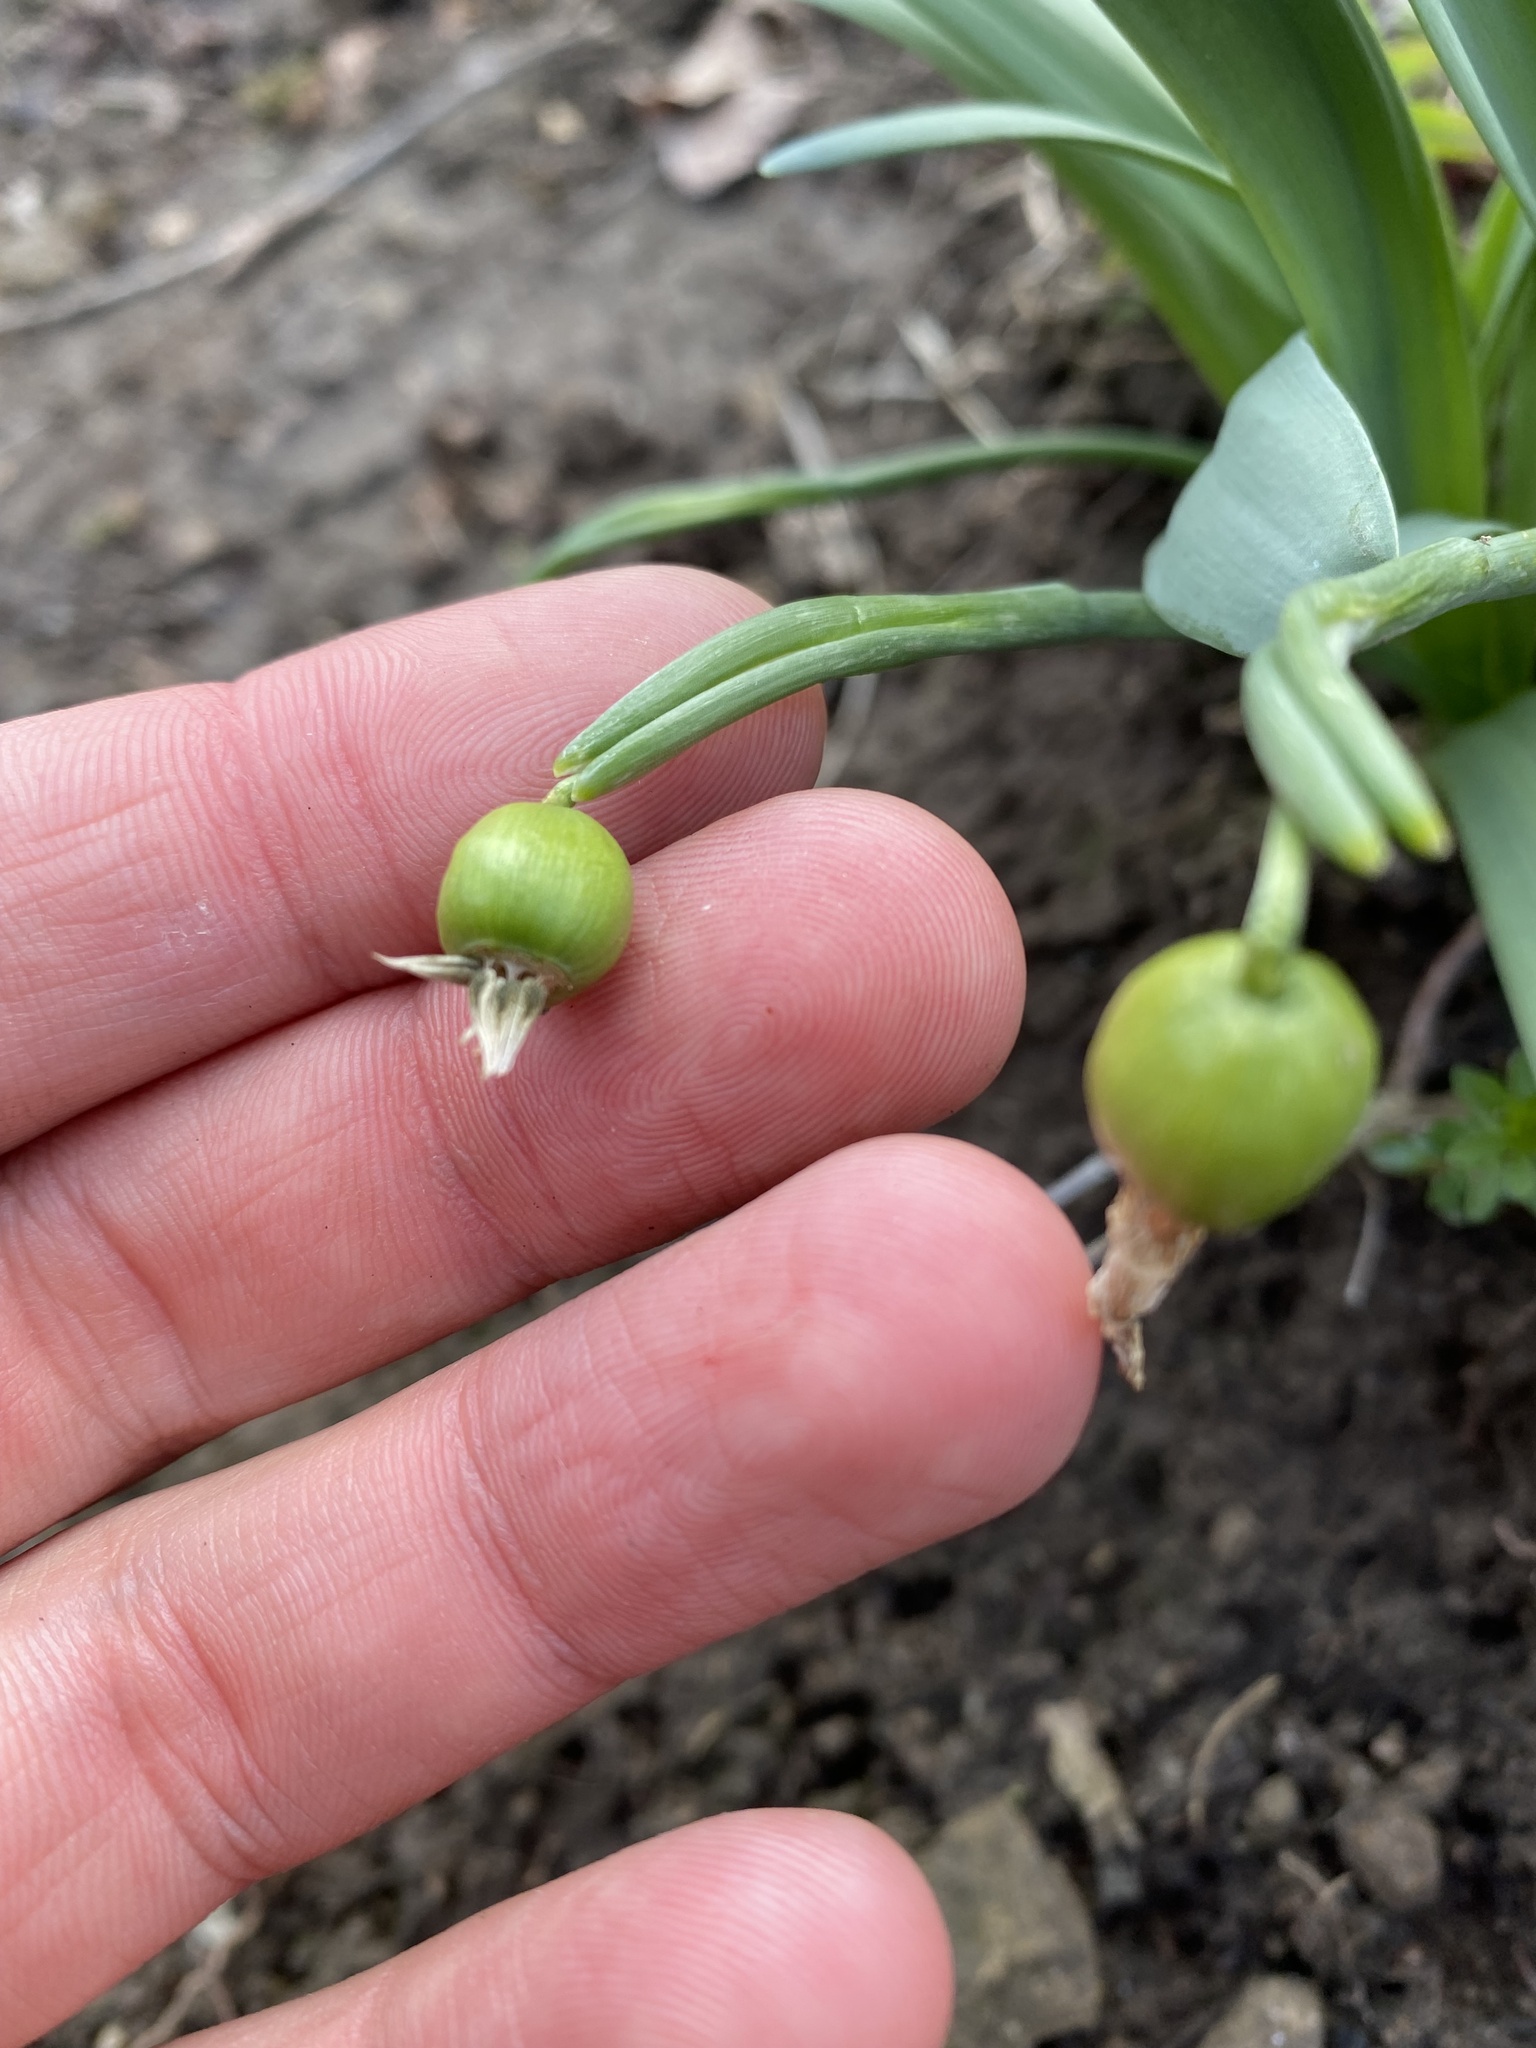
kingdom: Plantae
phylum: Tracheophyta
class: Liliopsida
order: Asparagales
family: Amaryllidaceae
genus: Galanthus
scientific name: Galanthus alpinus
